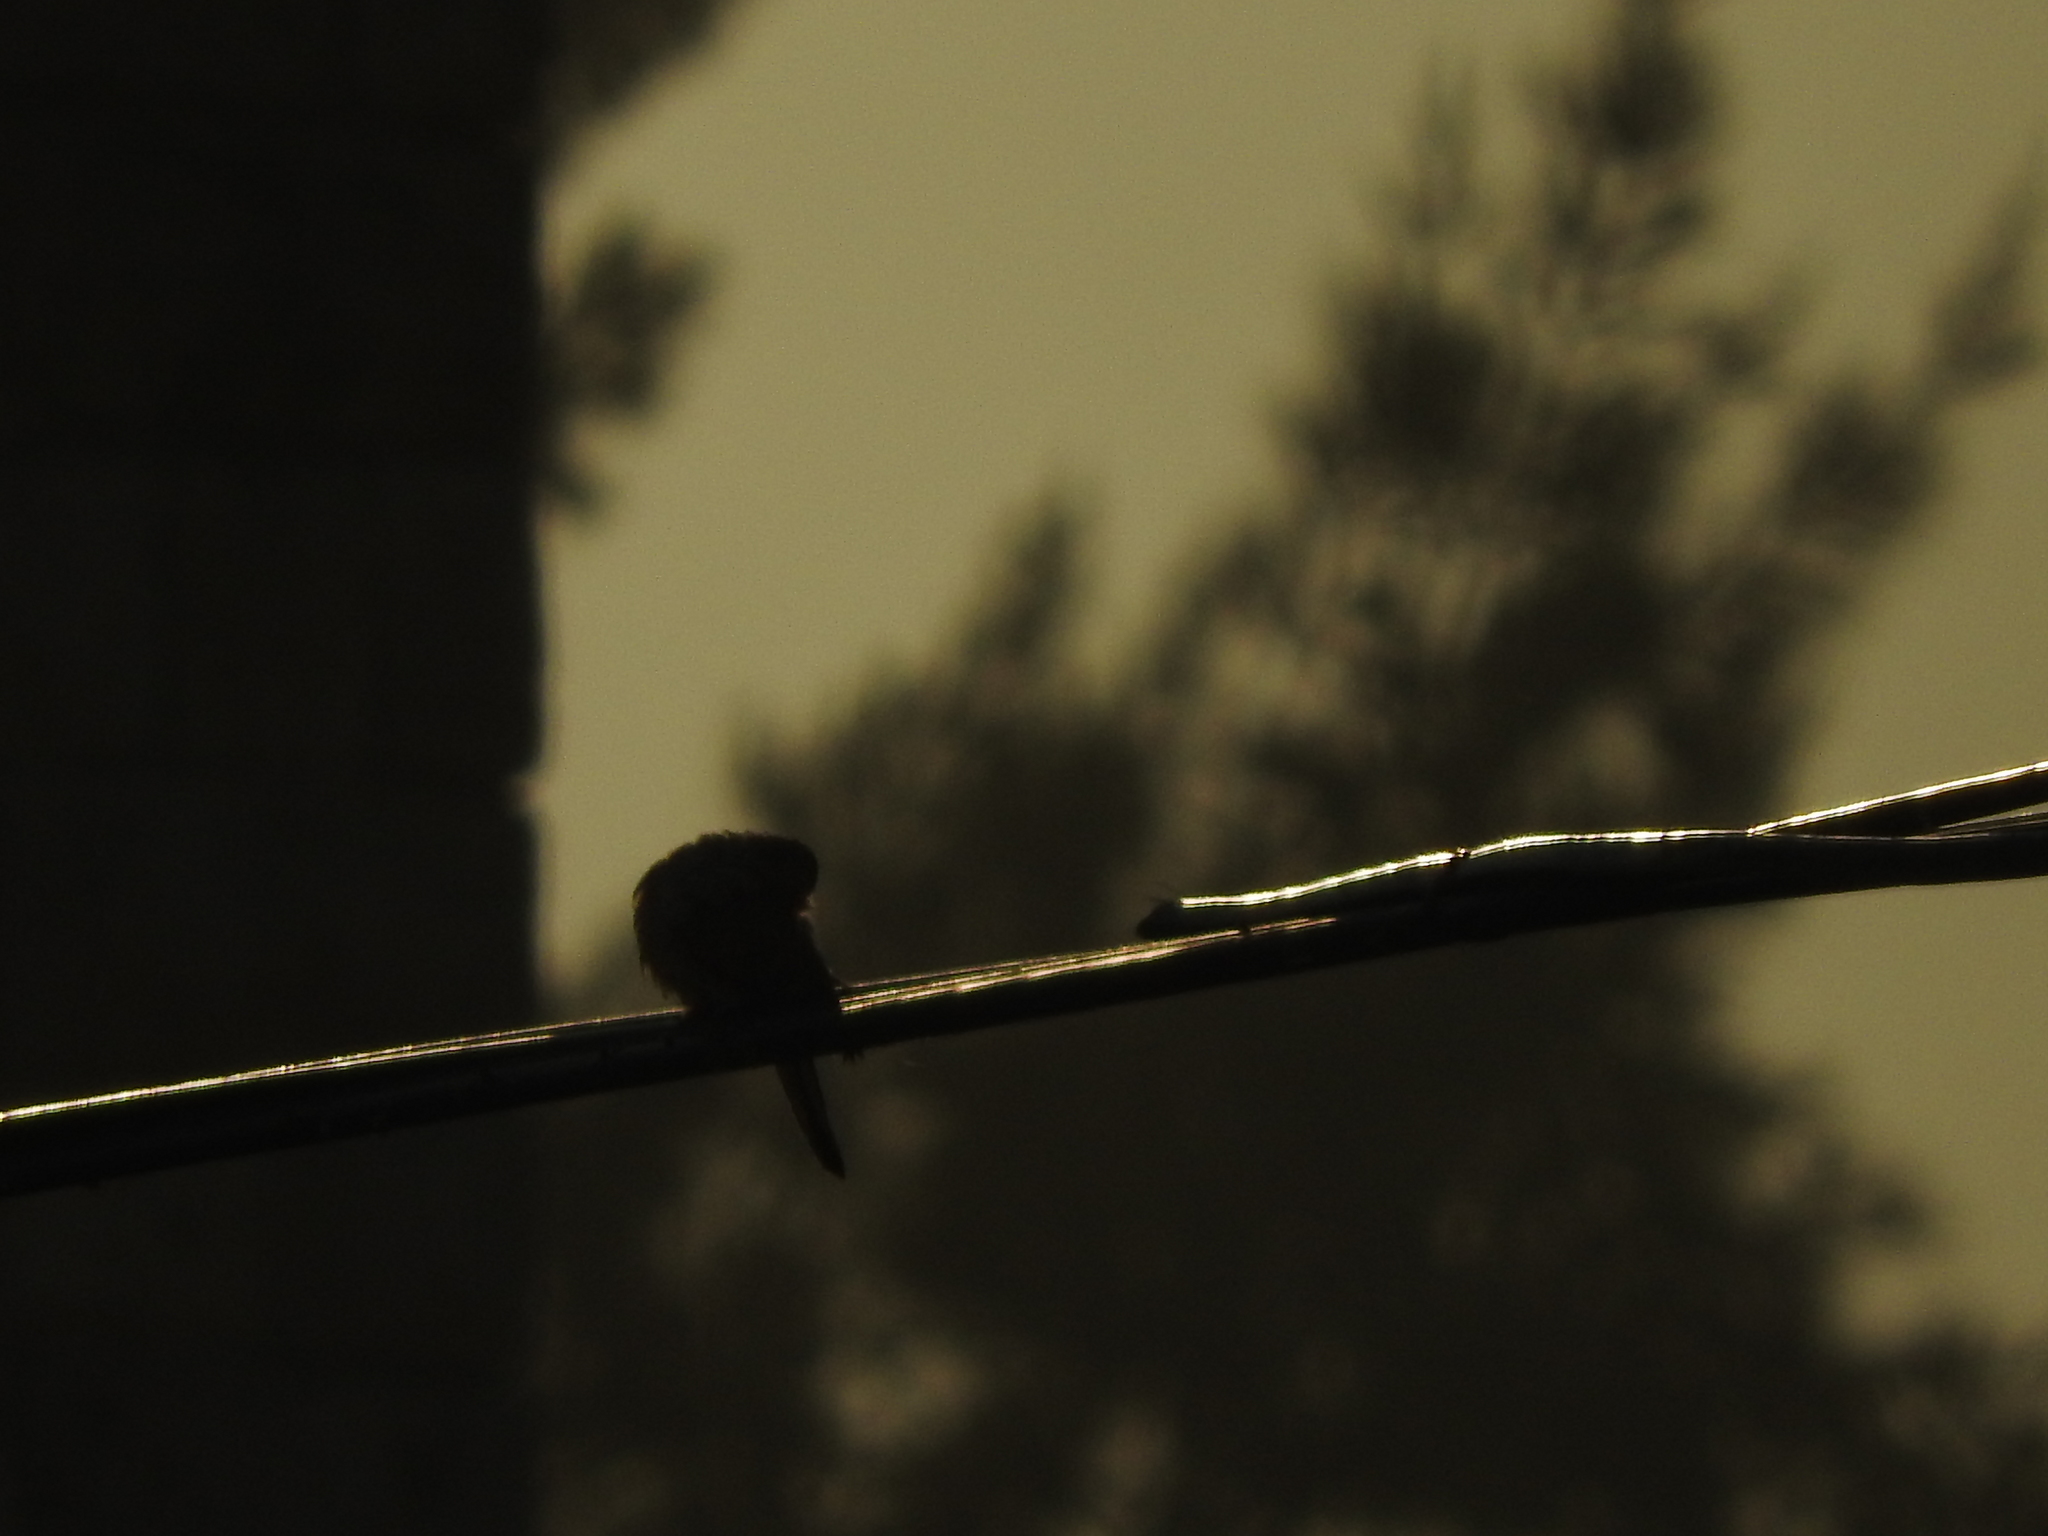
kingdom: Animalia
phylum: Chordata
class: Aves
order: Passeriformes
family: Fringillidae
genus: Haemorhous
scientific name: Haemorhous mexicanus
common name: House finch
